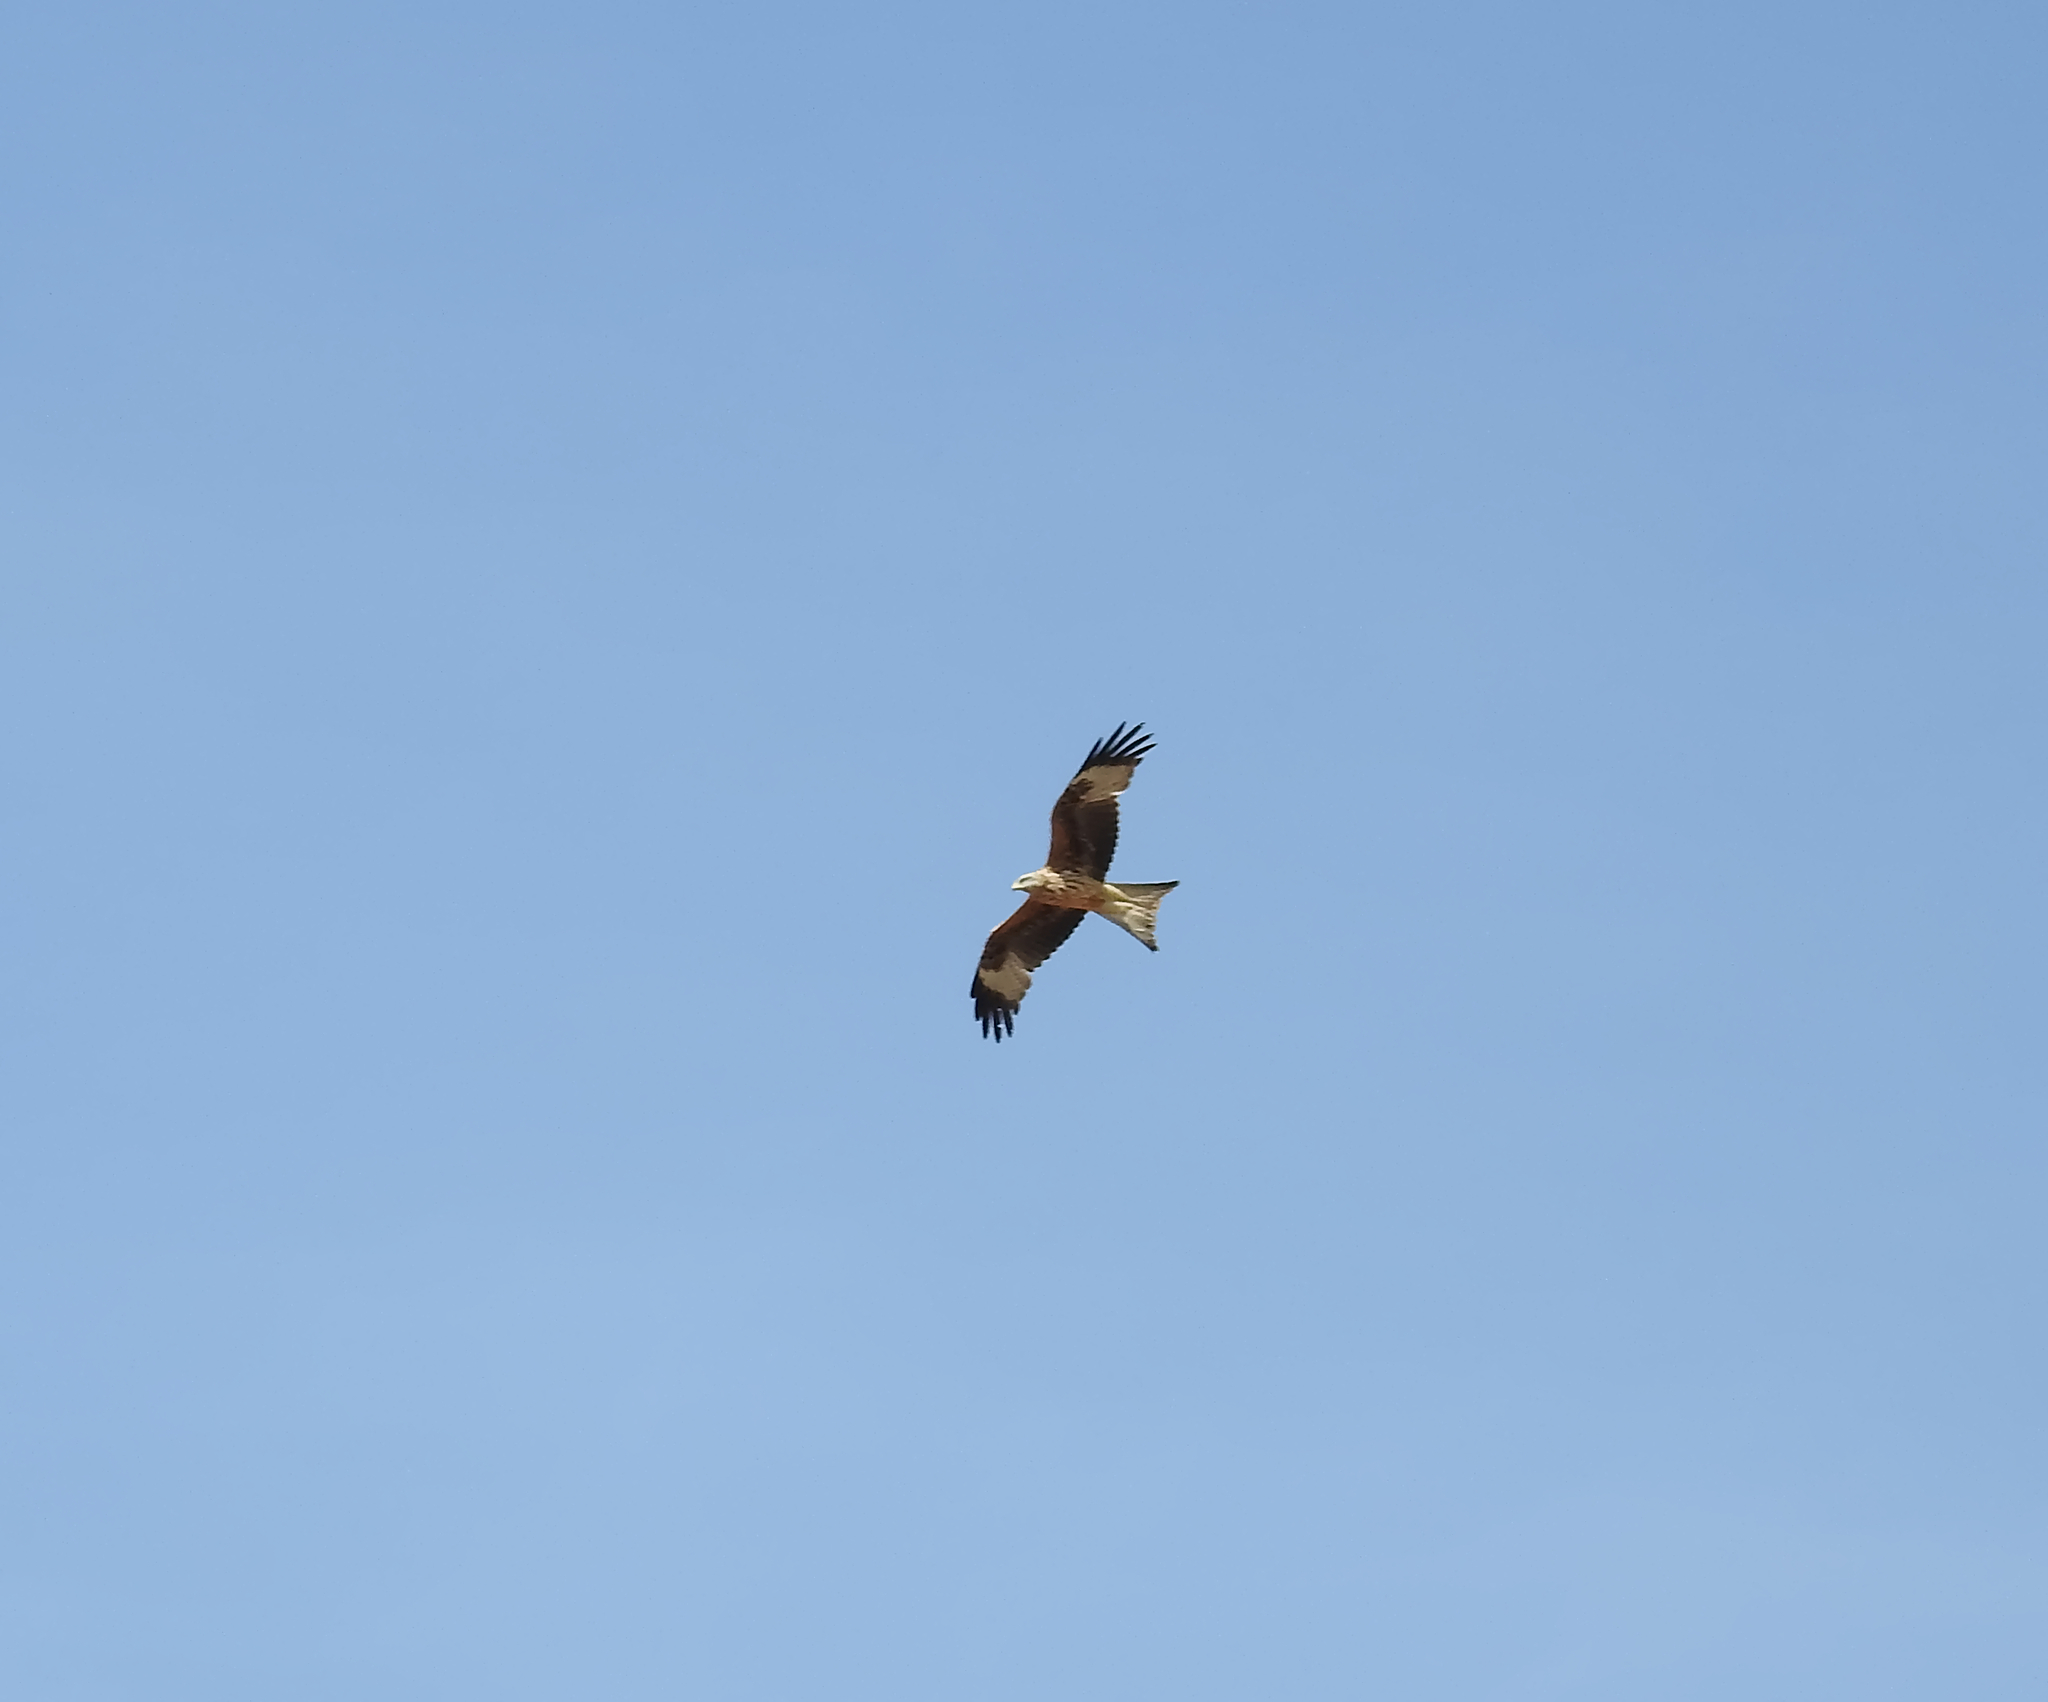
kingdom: Animalia
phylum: Chordata
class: Aves
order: Accipitriformes
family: Accipitridae
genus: Milvus
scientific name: Milvus milvus
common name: Red kite
